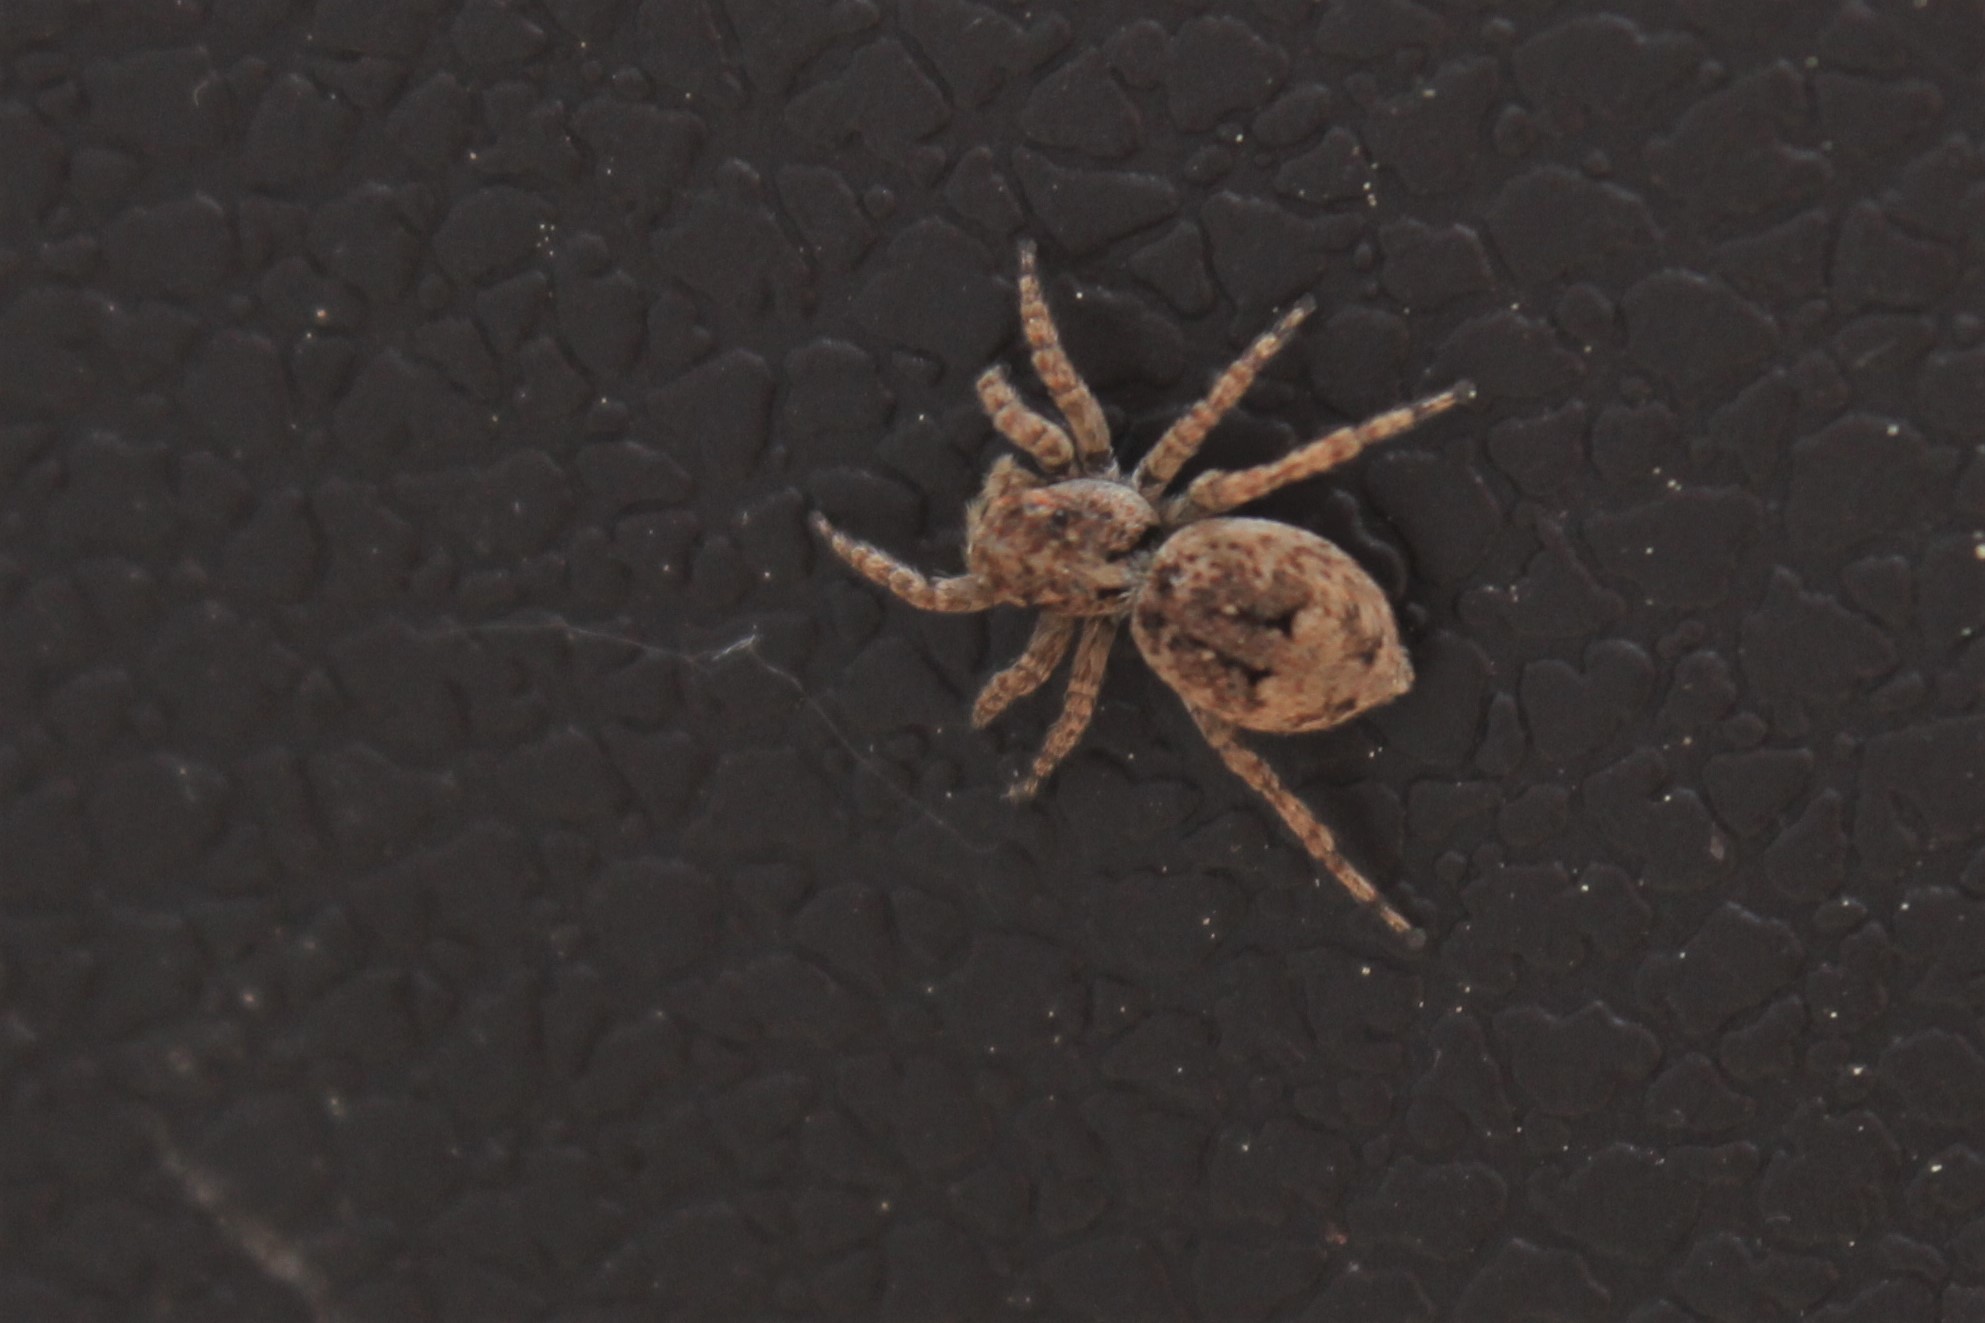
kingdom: Animalia
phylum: Arthropoda
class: Arachnida
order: Araneae
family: Salticidae
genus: Attulus
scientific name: Attulus fasciger
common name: Asiatic wall jumping spider
